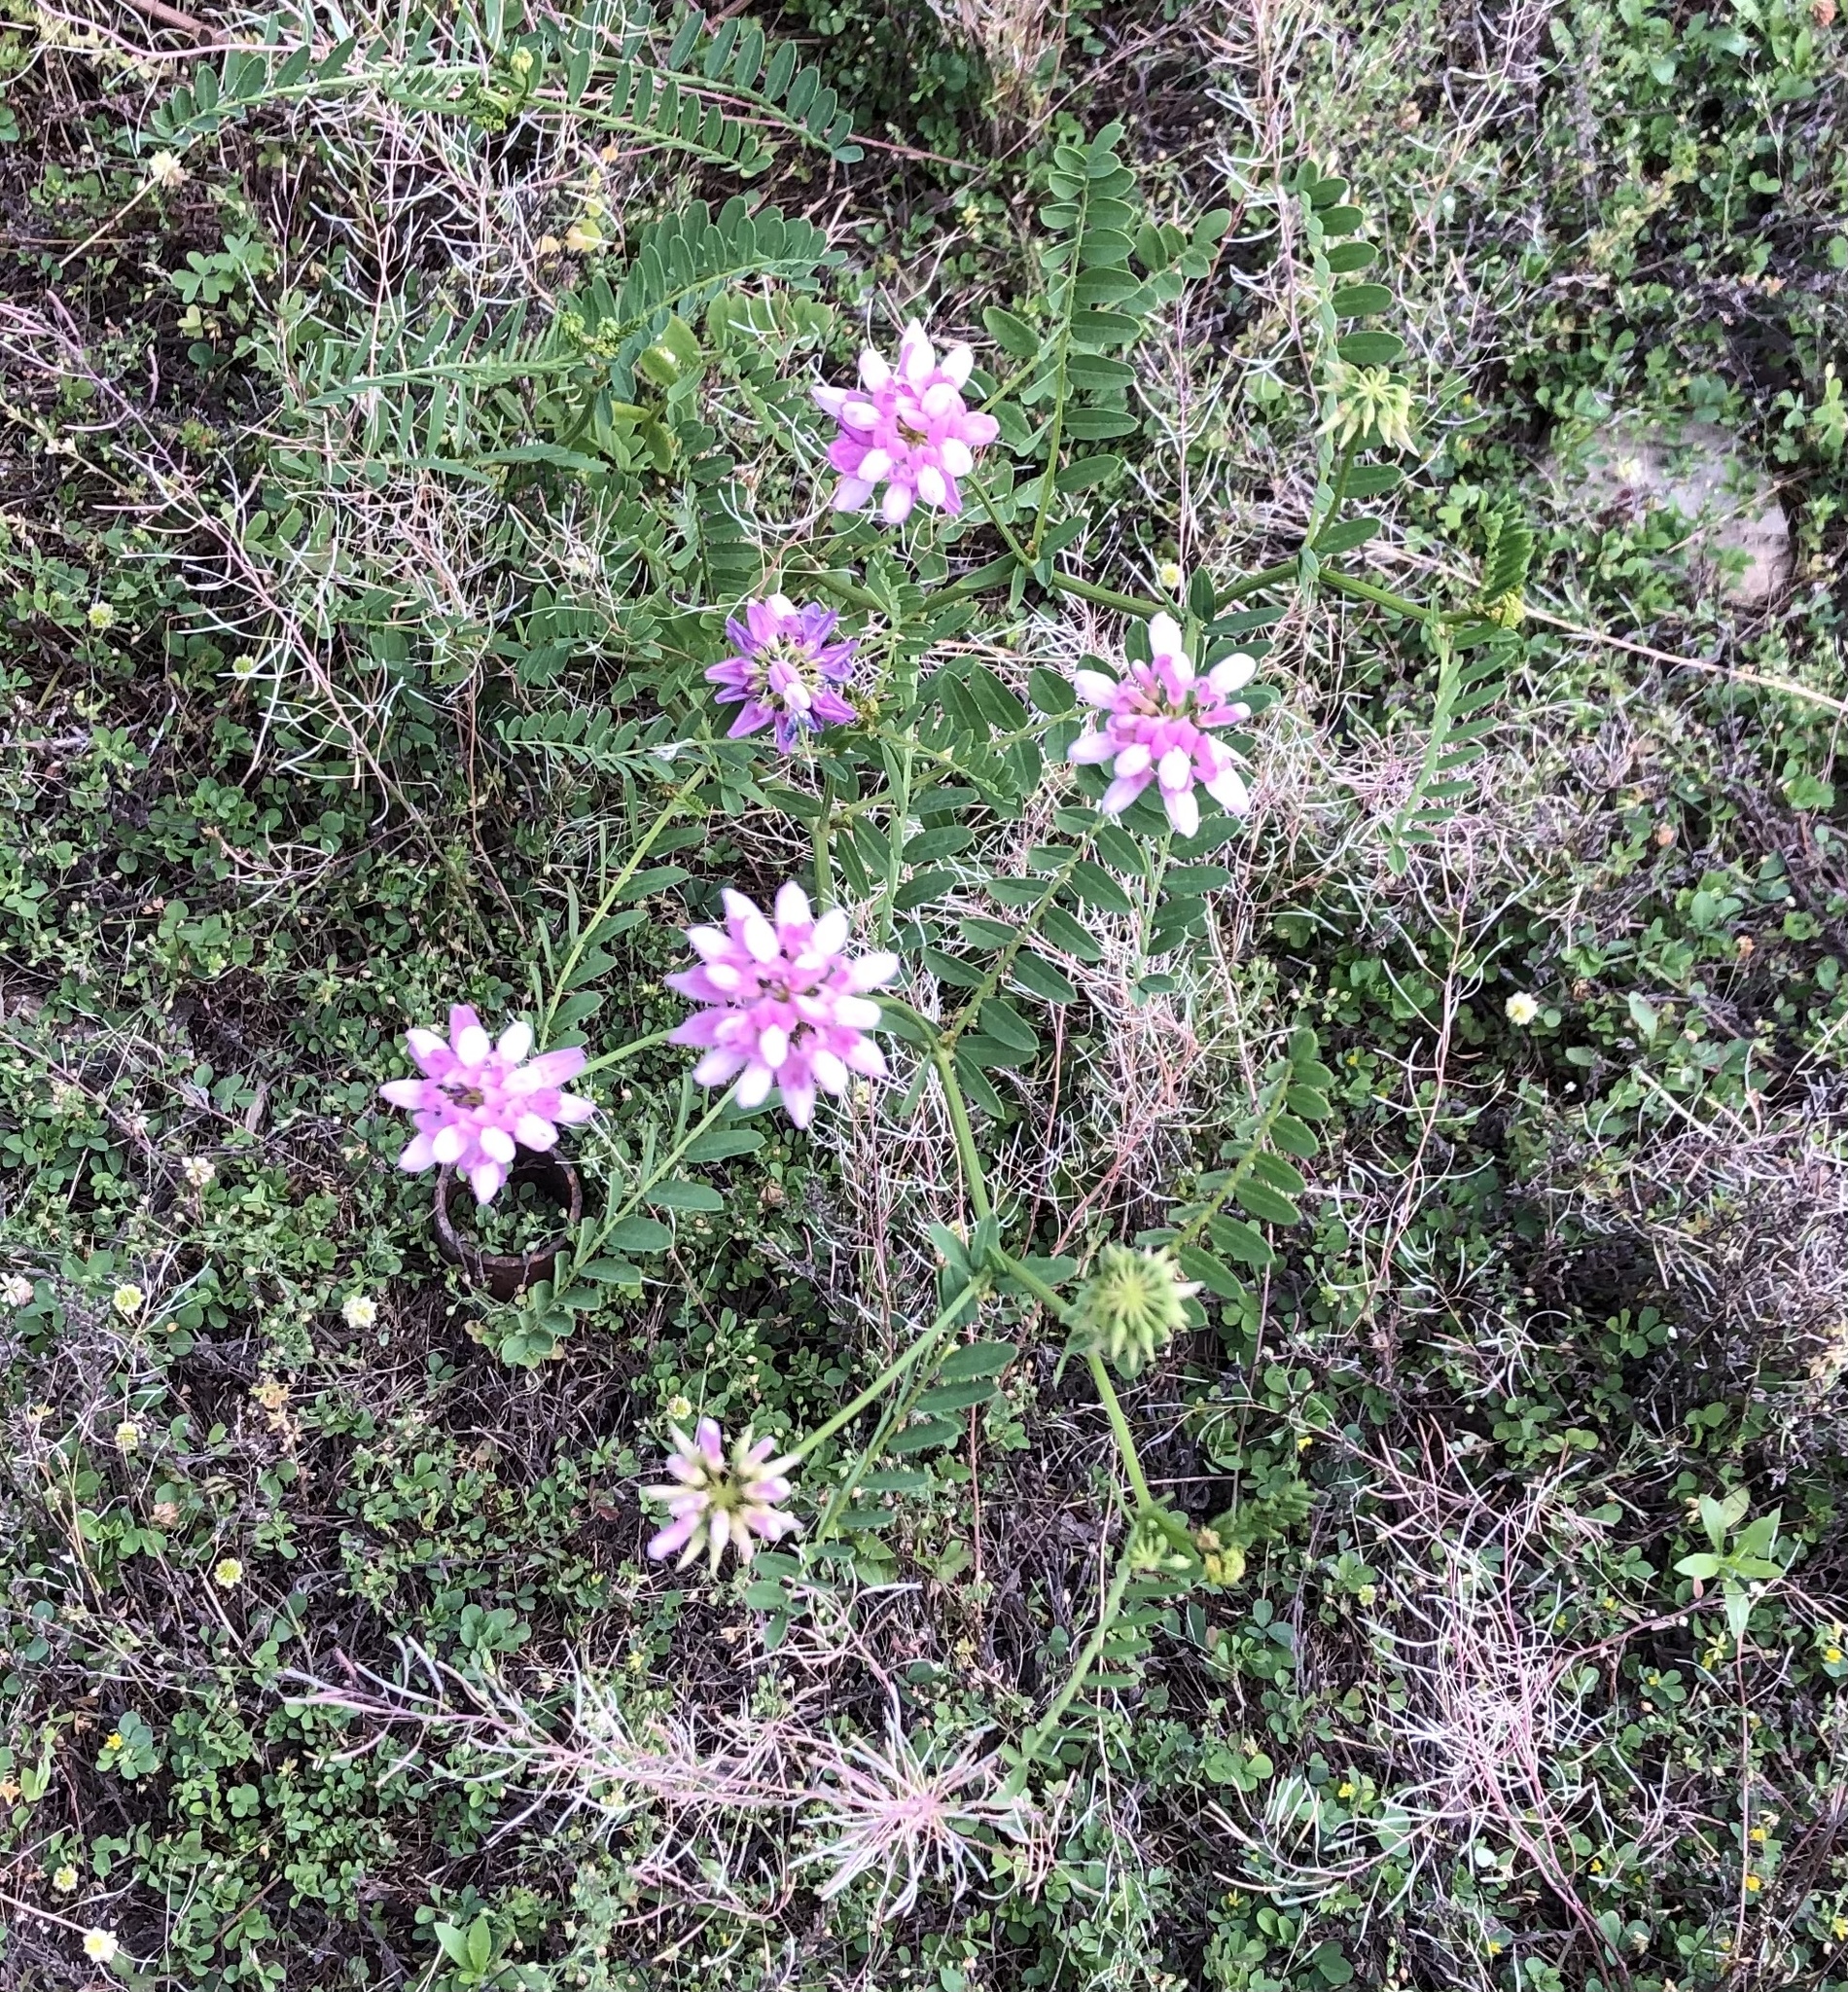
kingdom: Plantae
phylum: Tracheophyta
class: Magnoliopsida
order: Fabales
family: Fabaceae
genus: Coronilla
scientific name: Coronilla varia
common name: Crownvetch
